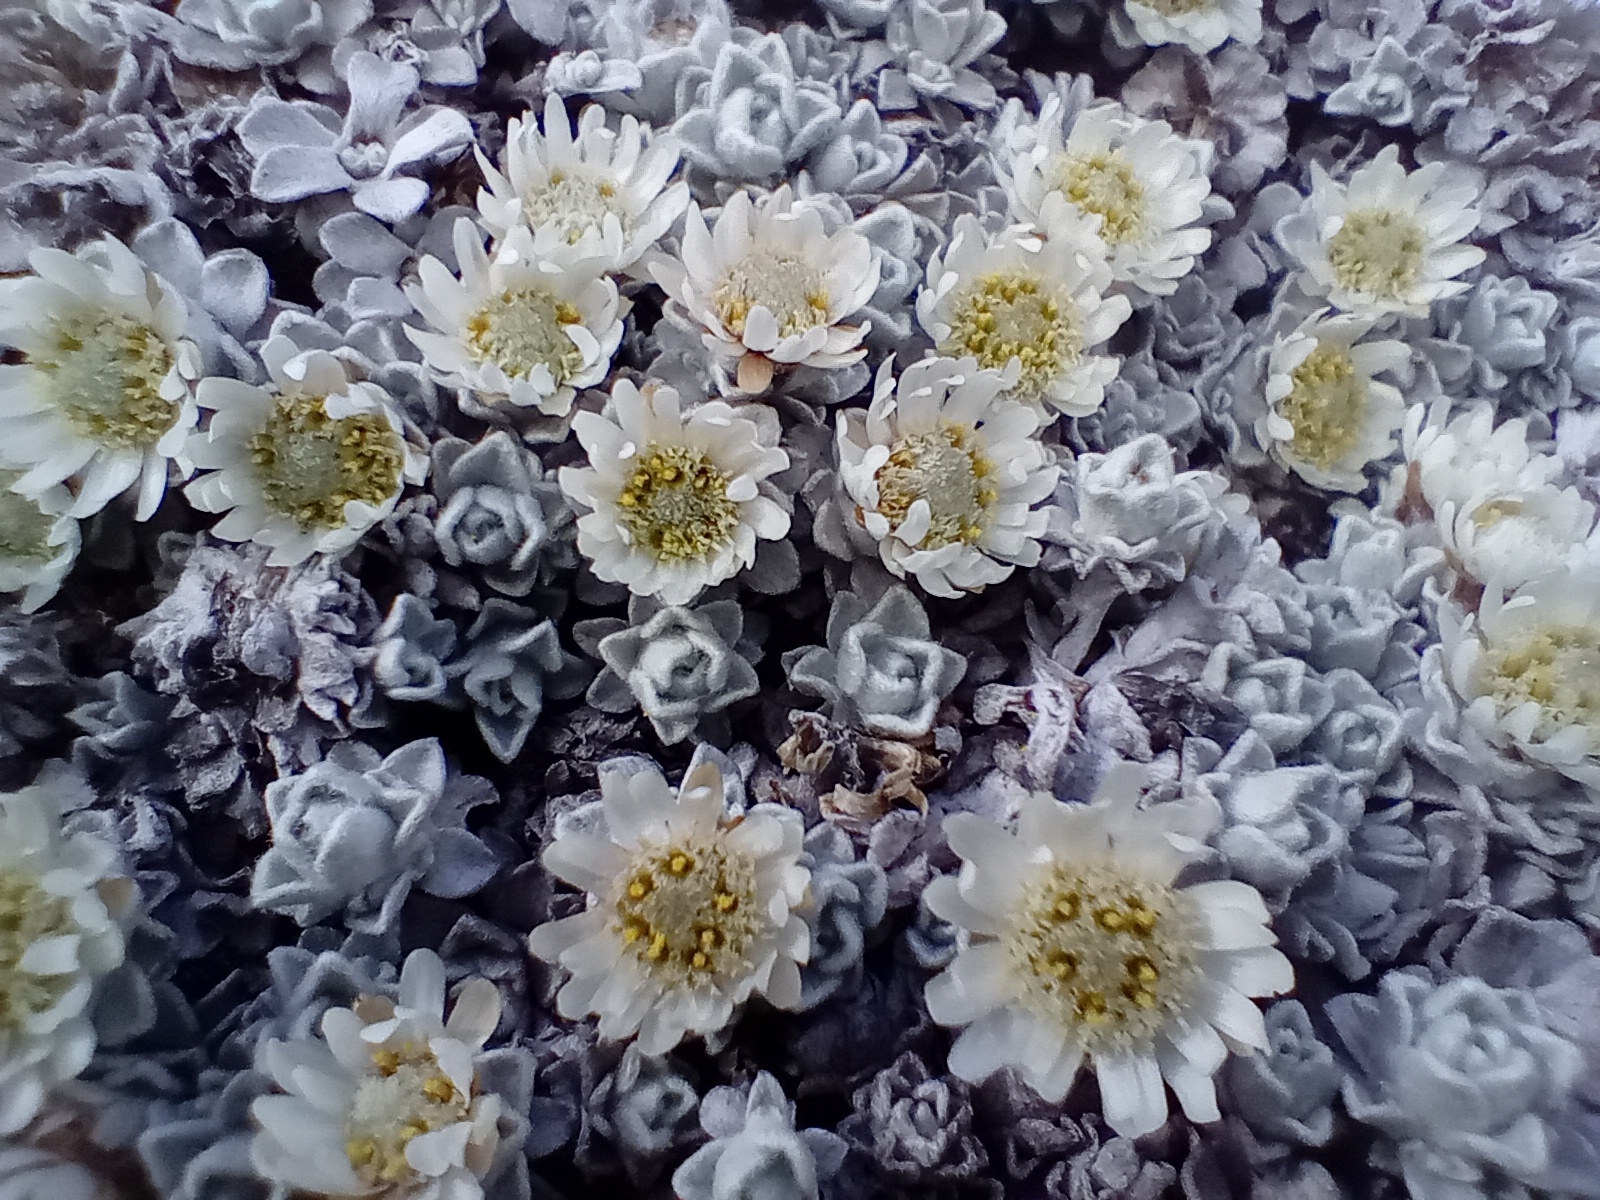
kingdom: Plantae
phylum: Tracheophyta
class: Magnoliopsida
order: Asterales
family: Asteraceae
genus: Raoulia
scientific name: Raoulia youngii
